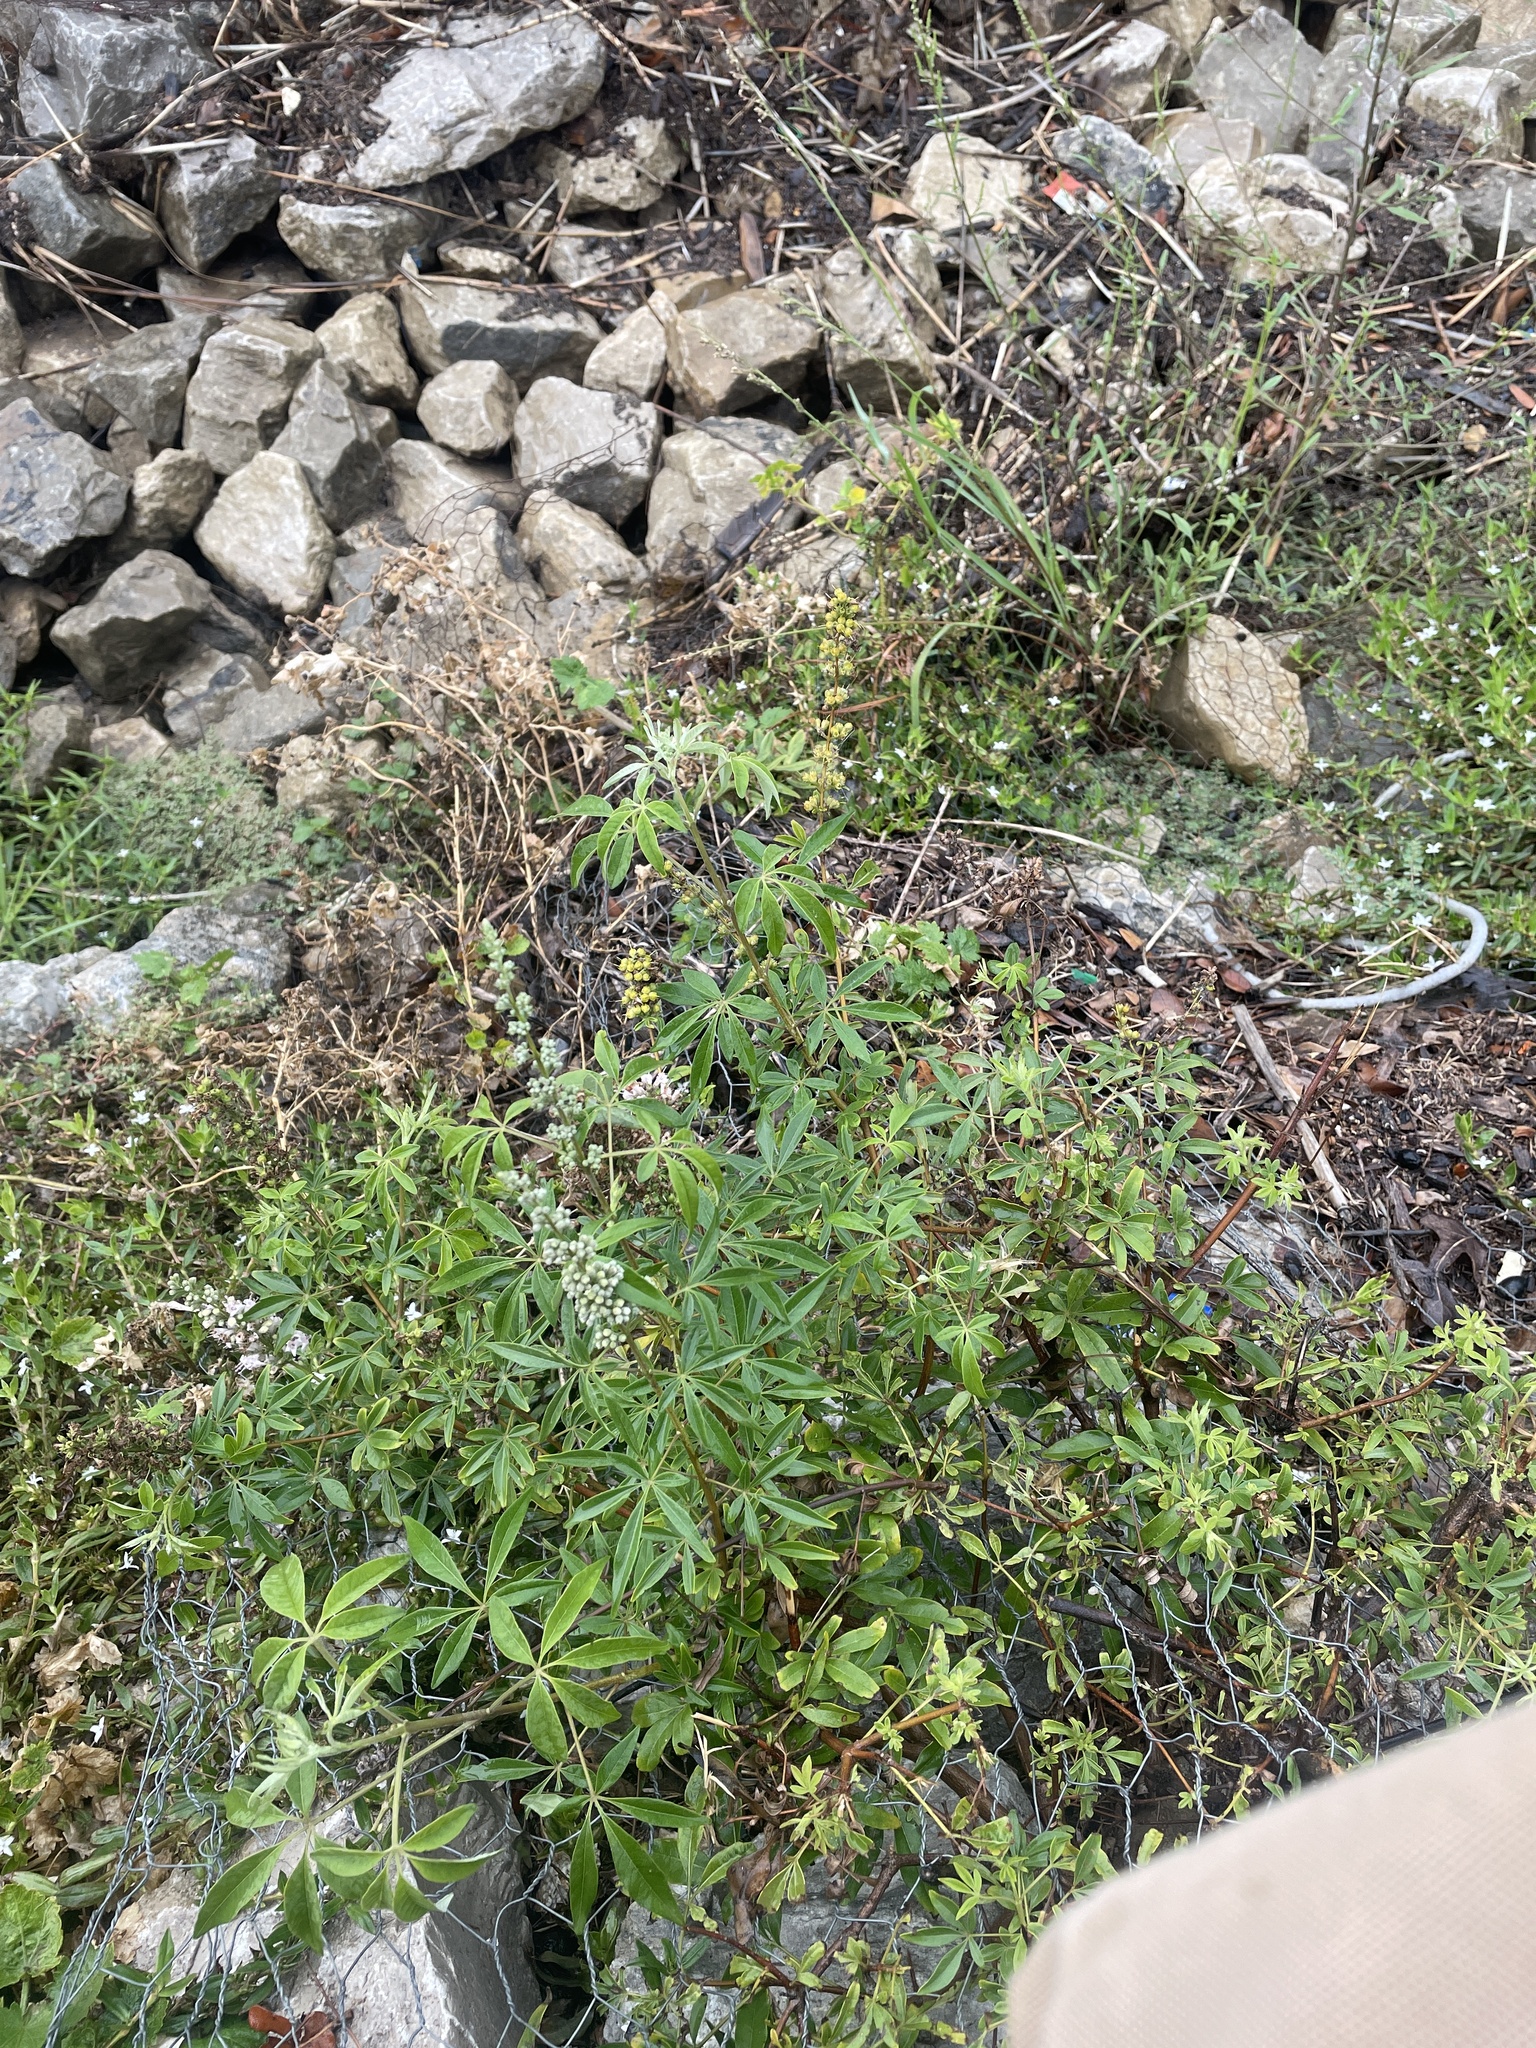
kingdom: Plantae
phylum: Tracheophyta
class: Magnoliopsida
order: Lamiales
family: Lamiaceae
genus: Vitex
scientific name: Vitex agnus-castus
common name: Chasteberry
